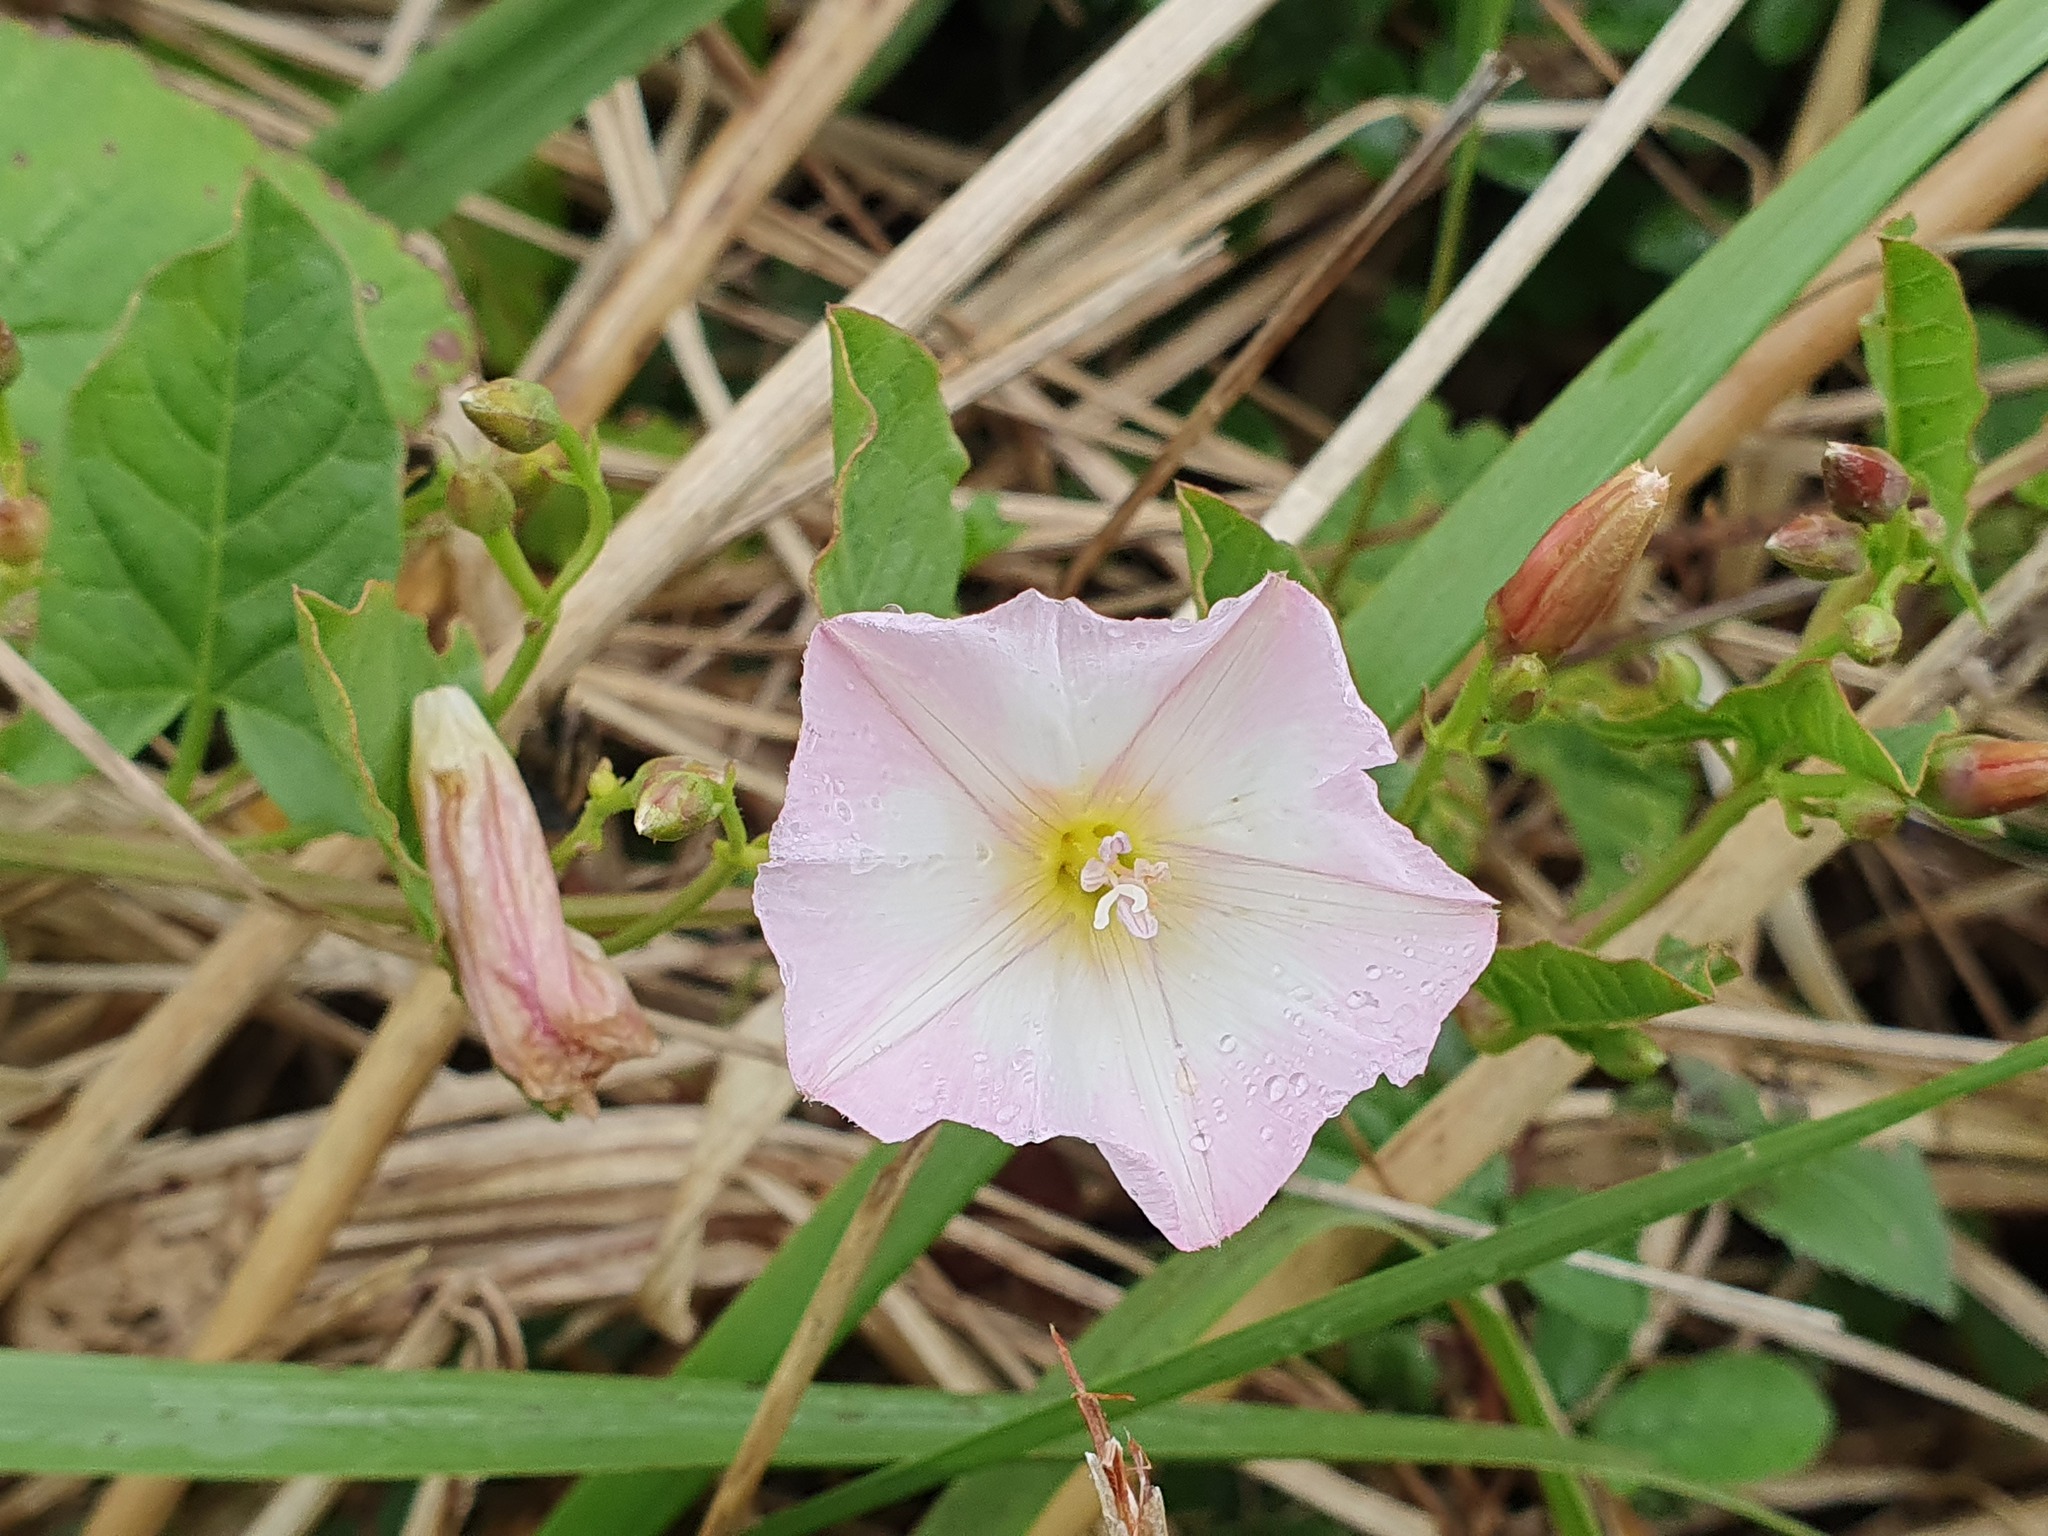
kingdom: Plantae
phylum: Tracheophyta
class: Magnoliopsida
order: Solanales
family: Convolvulaceae
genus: Convolvulus
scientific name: Convolvulus arvensis
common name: Field bindweed
